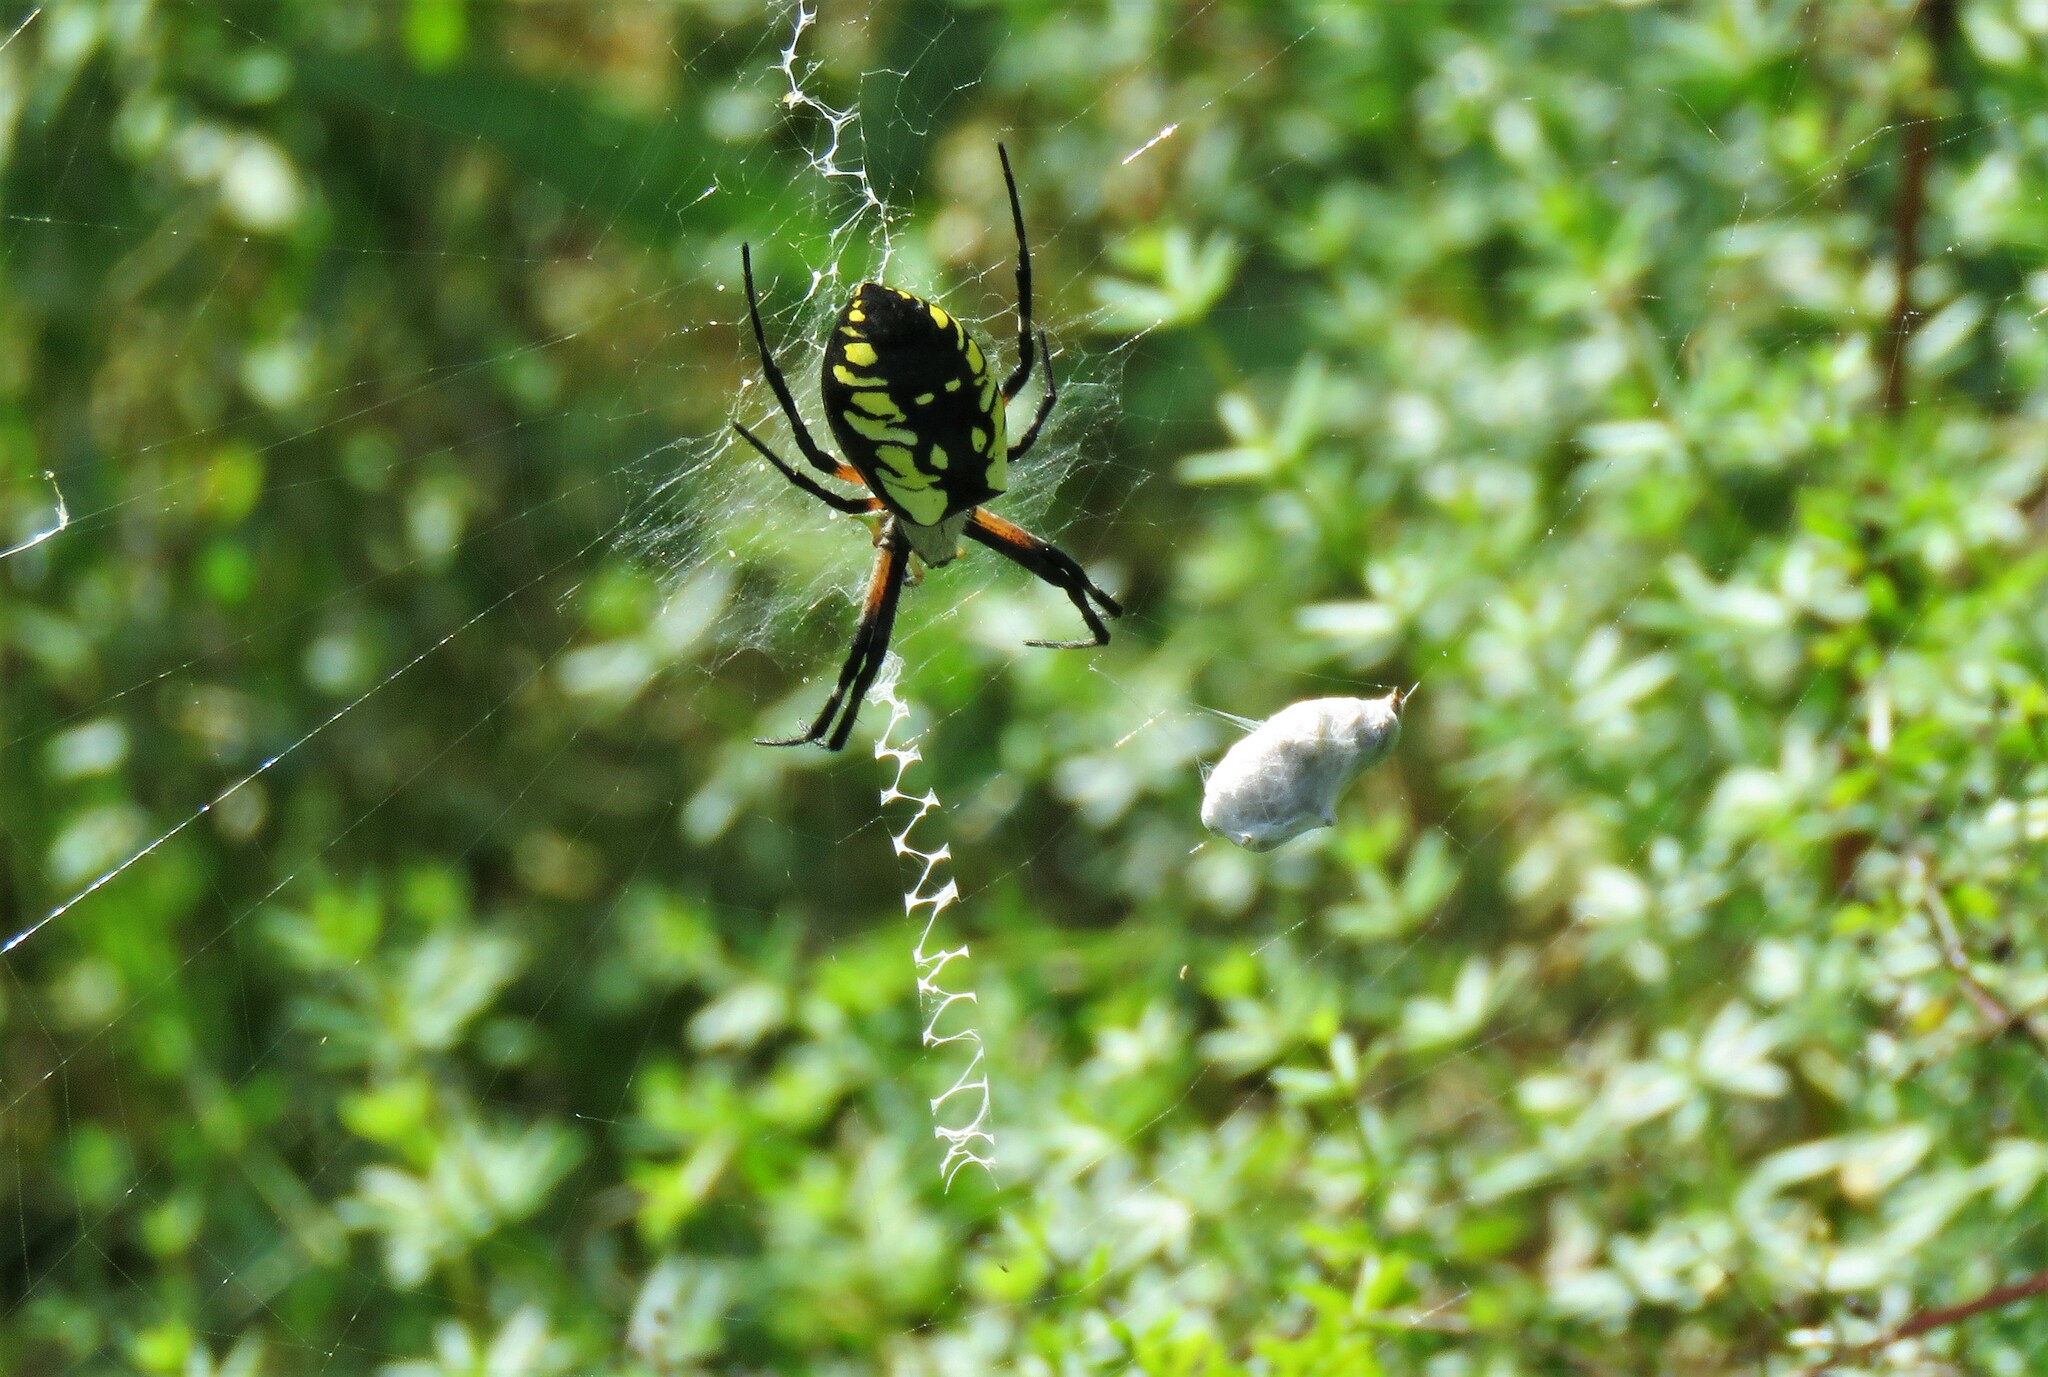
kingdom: Animalia
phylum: Arthropoda
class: Arachnida
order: Araneae
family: Araneidae
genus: Argiope
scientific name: Argiope aurantia
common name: Orb weavers
